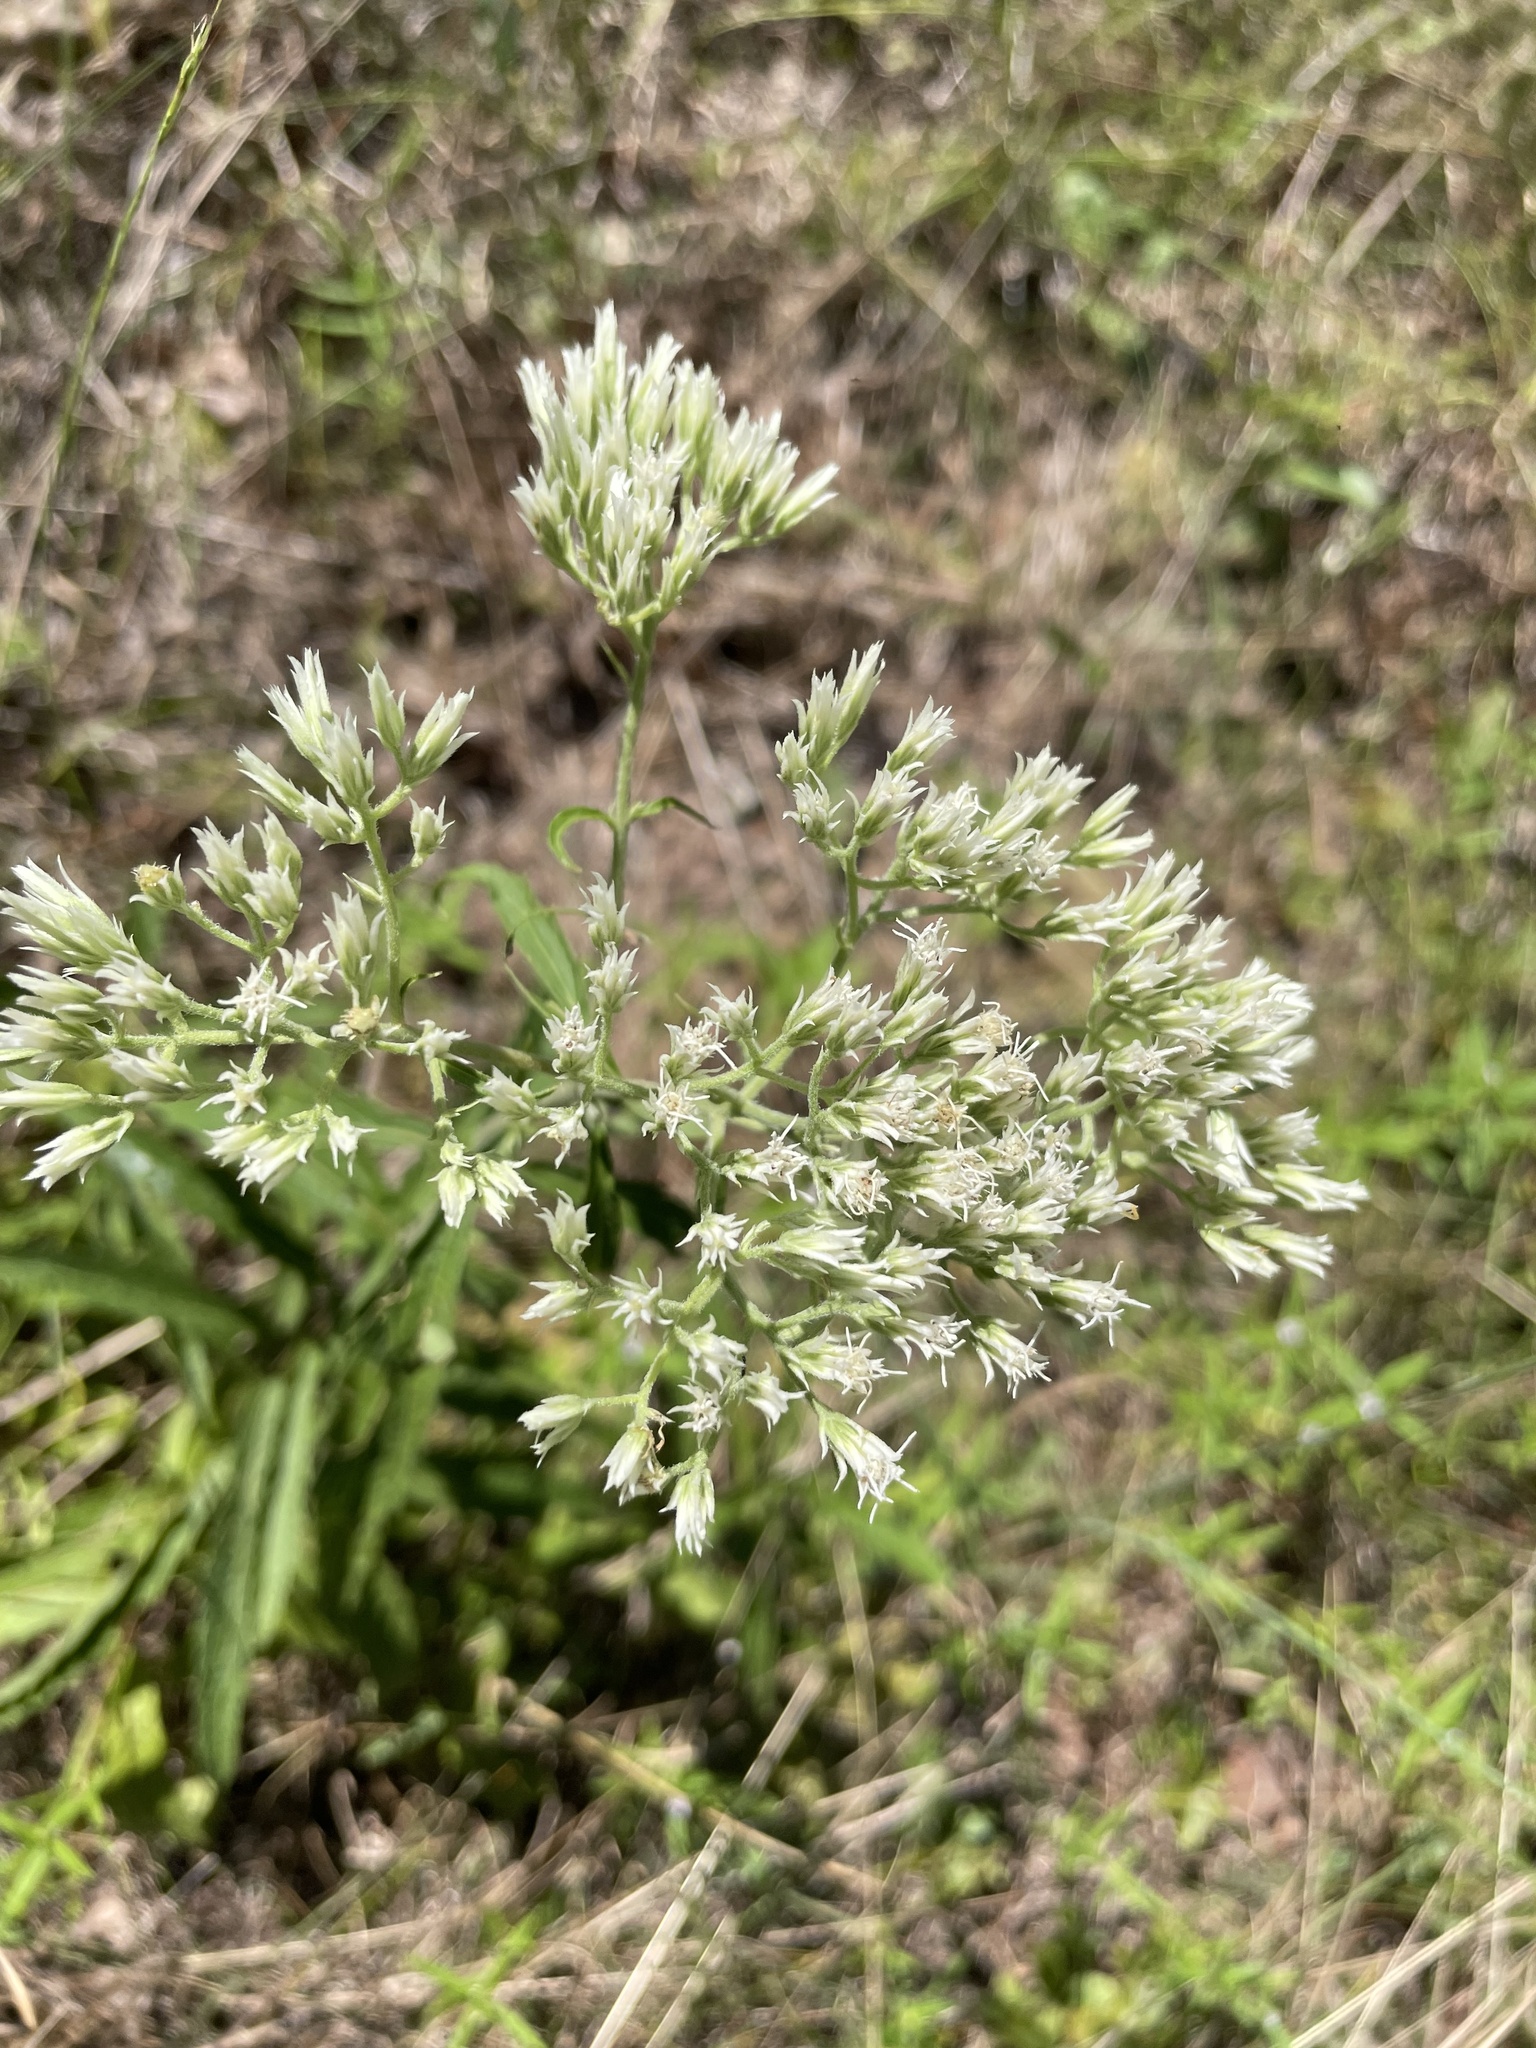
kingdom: Plantae
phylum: Tracheophyta
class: Magnoliopsida
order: Asterales
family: Asteraceae
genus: Eupatorium
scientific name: Eupatorium album
